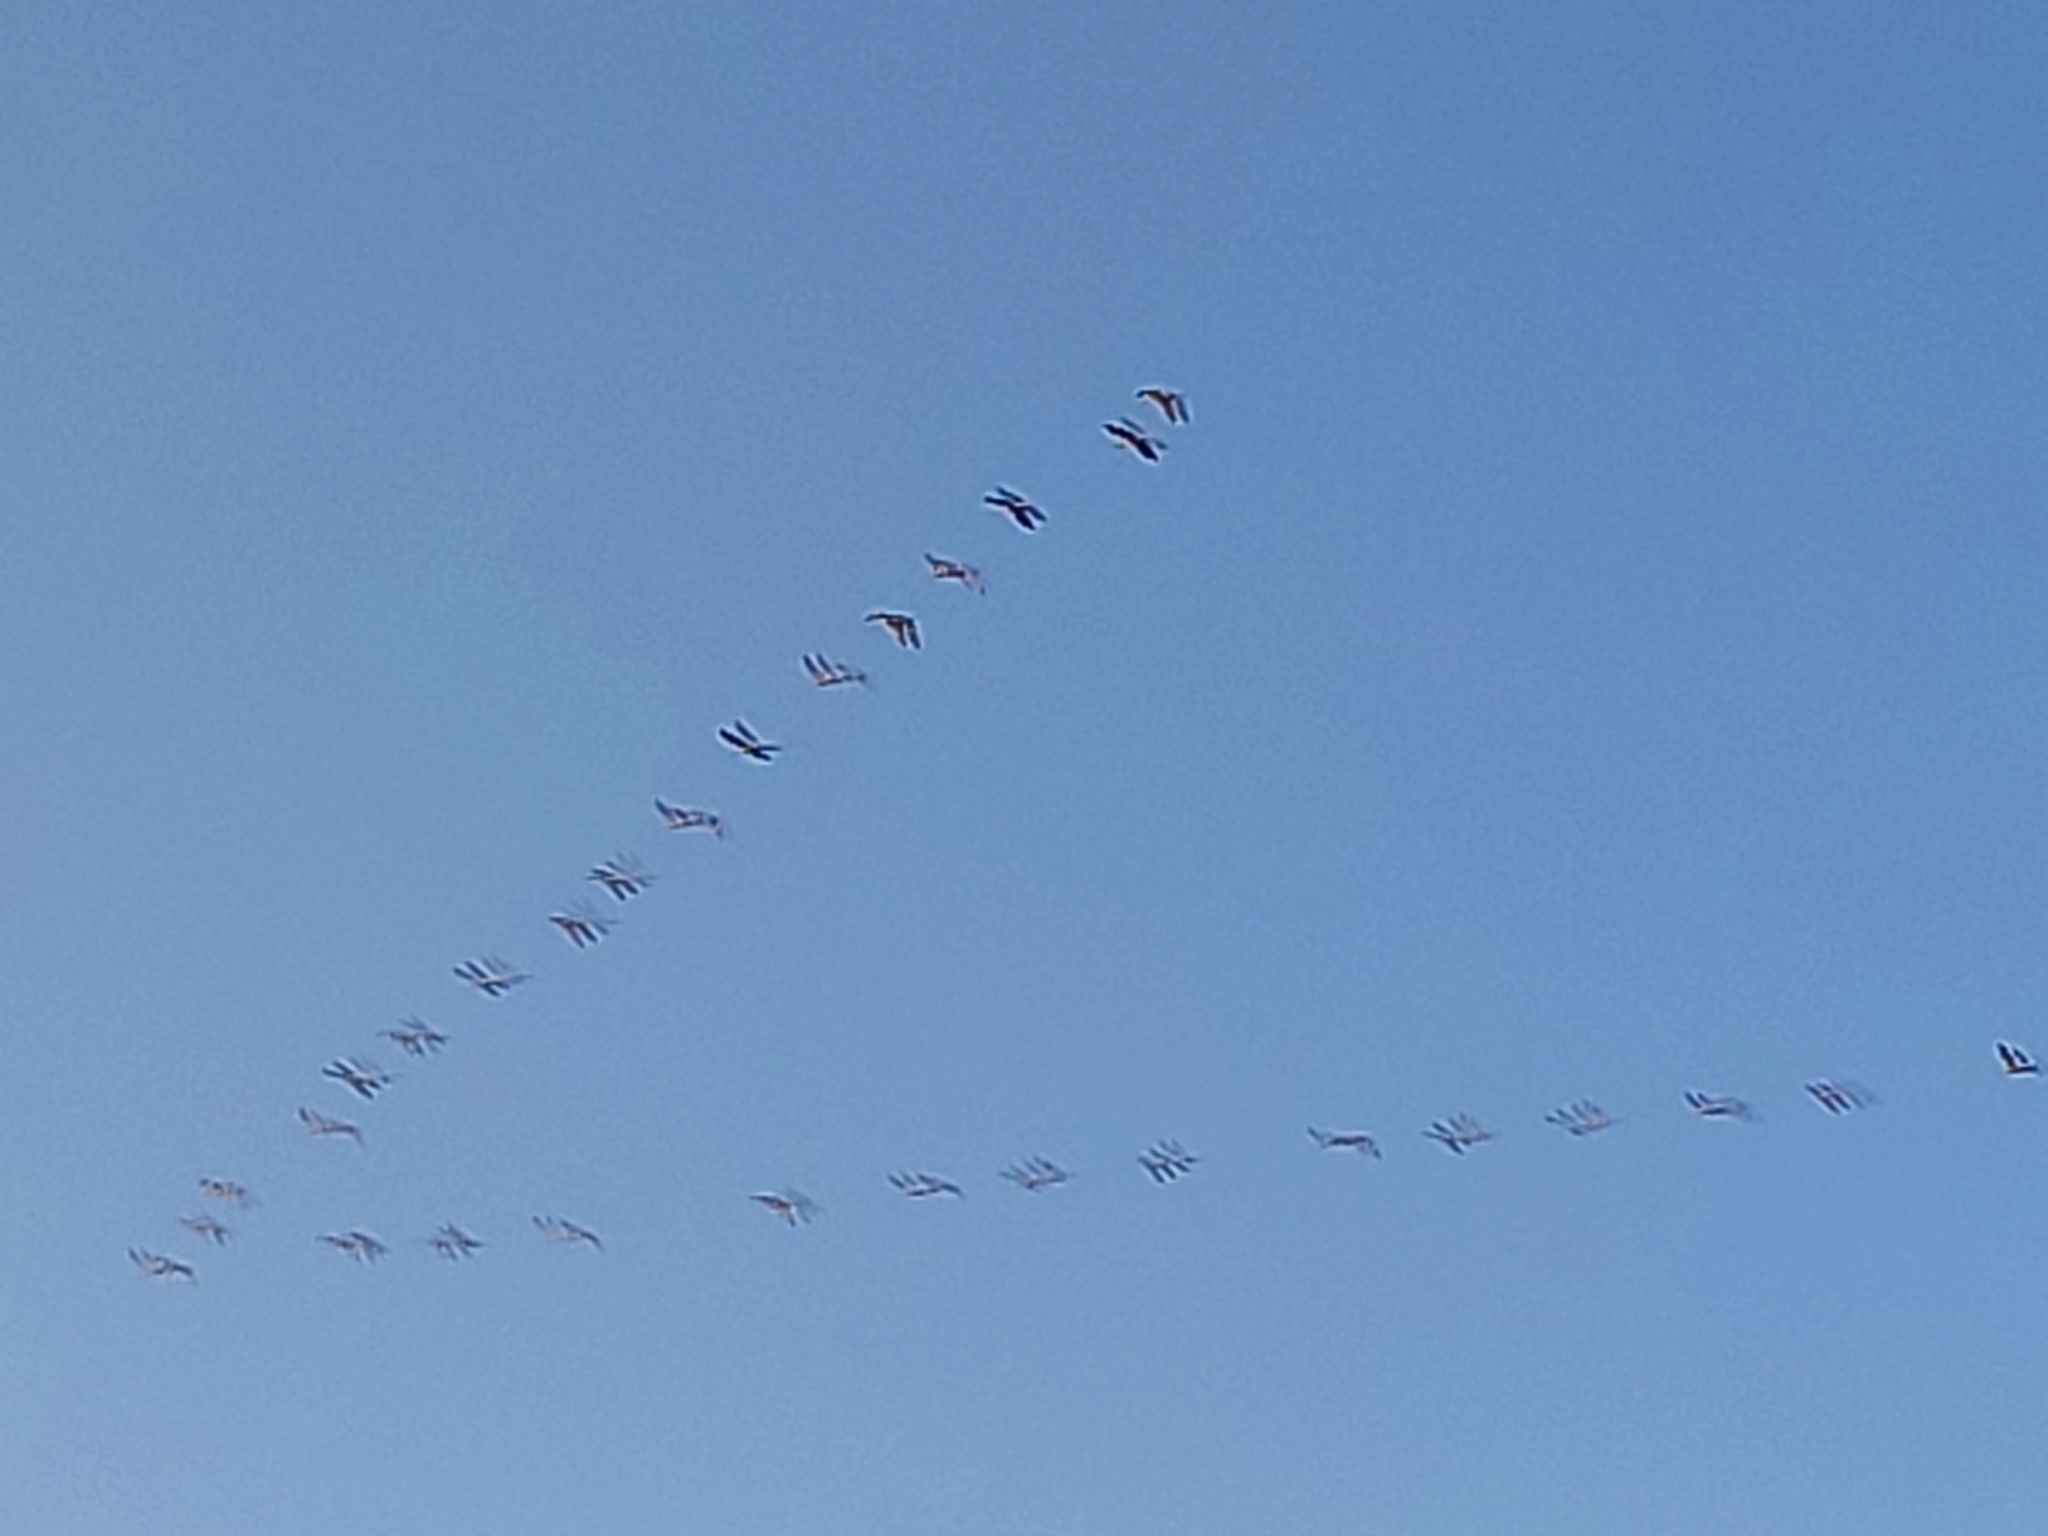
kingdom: Animalia
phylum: Chordata
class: Aves
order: Gruiformes
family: Gruidae
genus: Grus
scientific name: Grus grus
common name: Common crane
